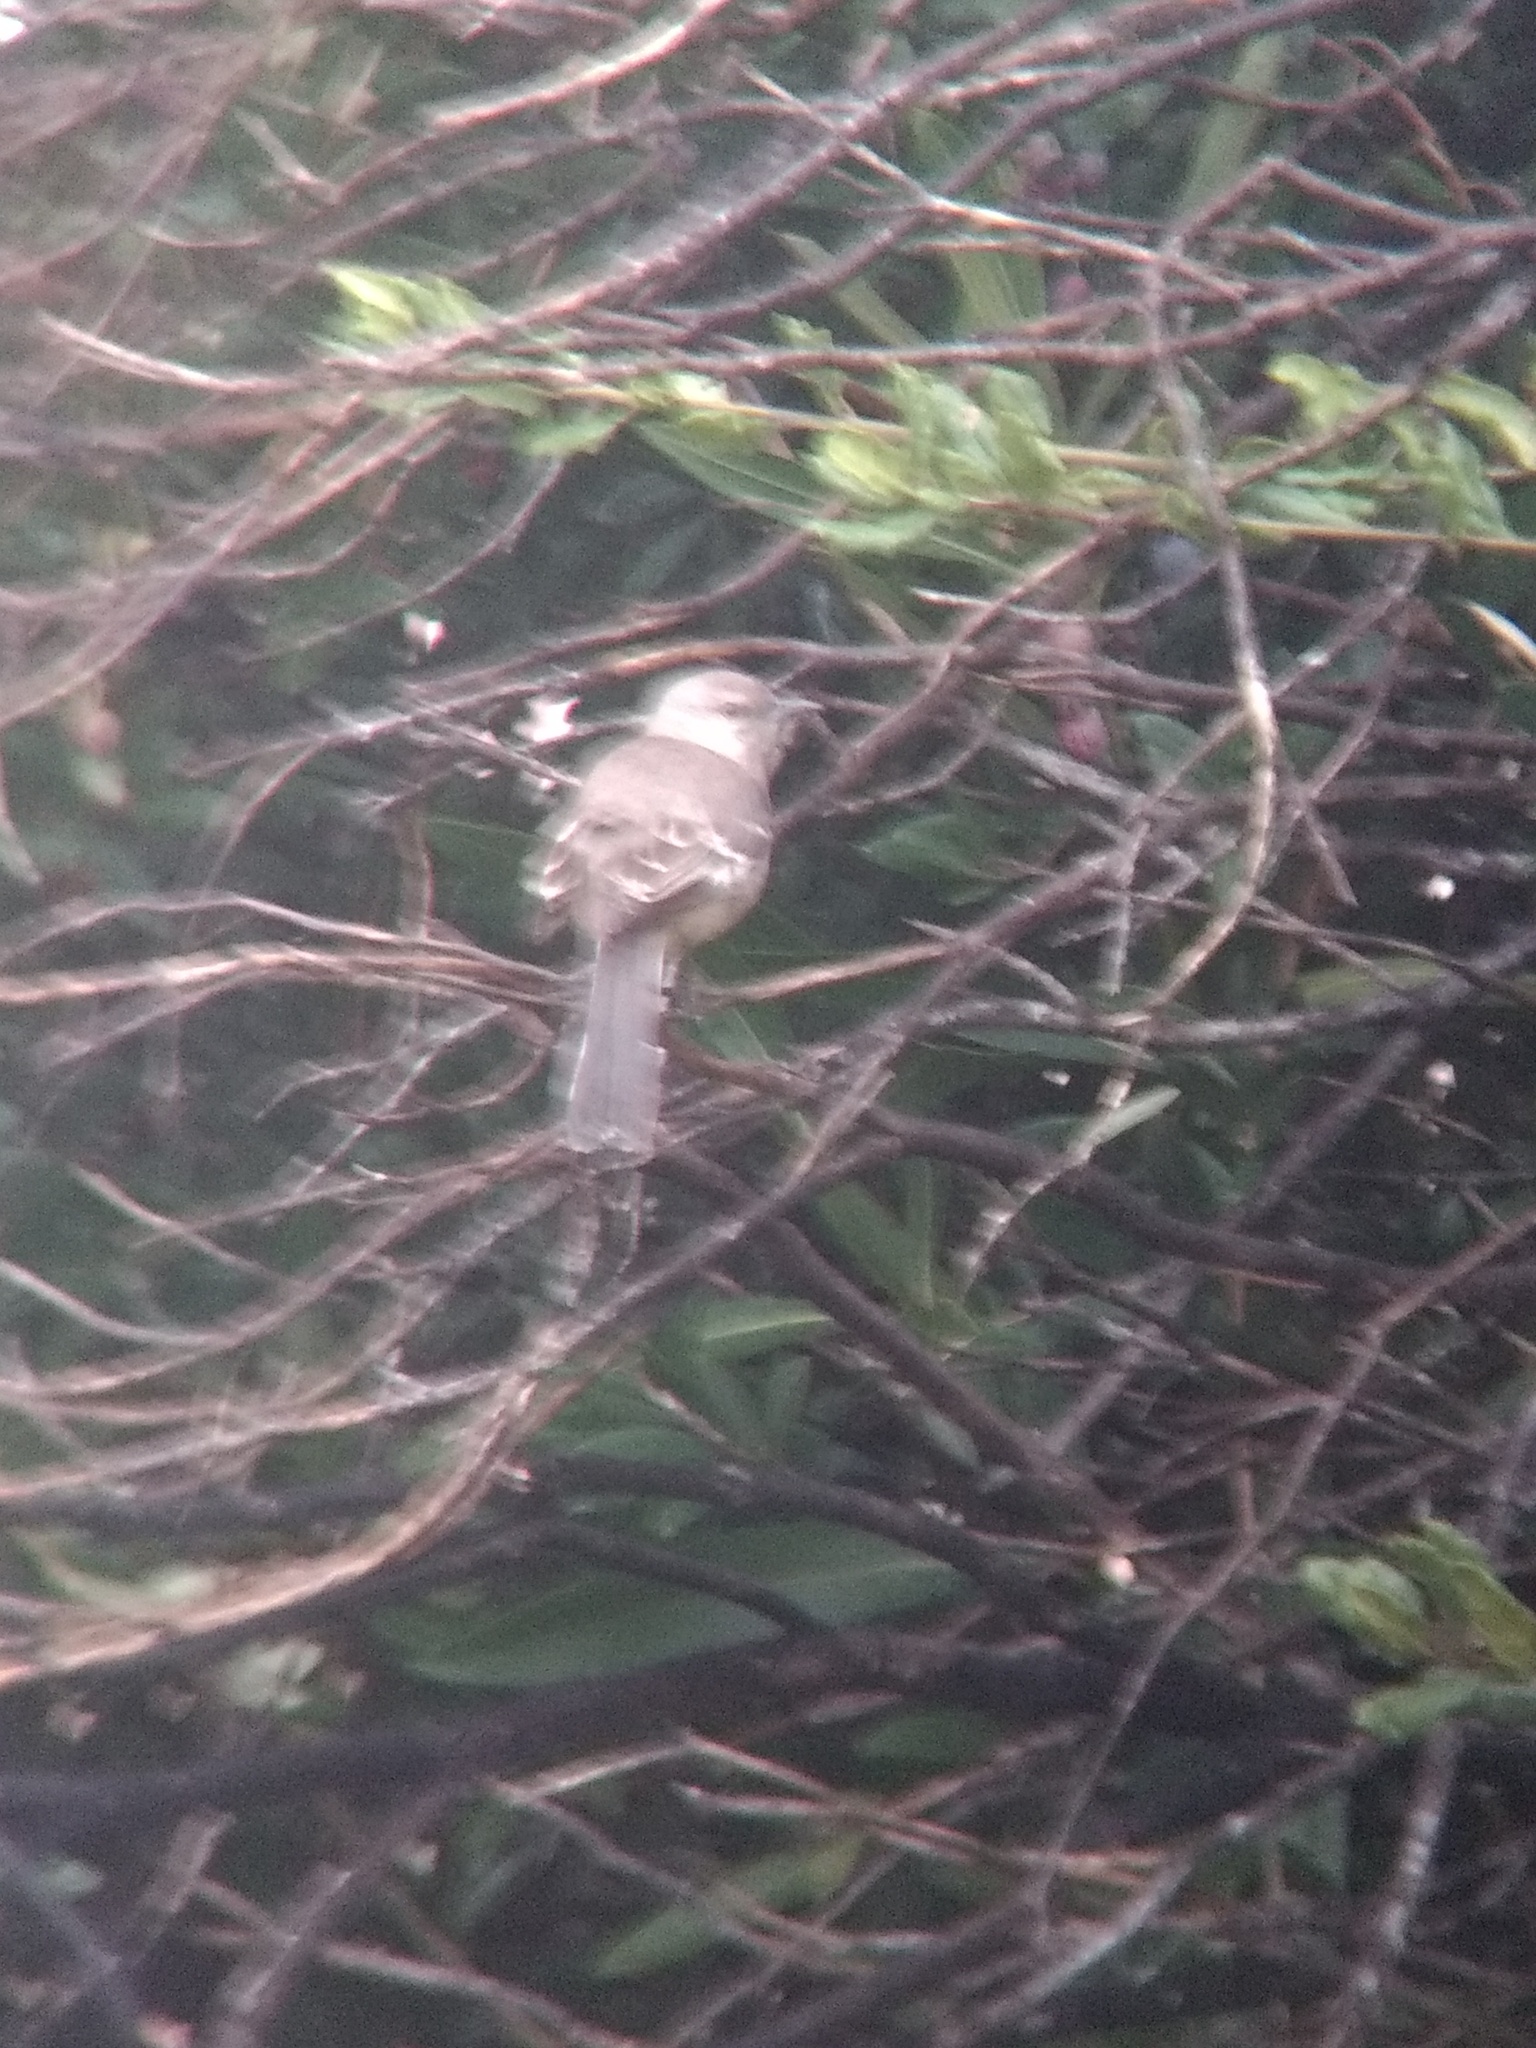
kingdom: Animalia
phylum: Chordata
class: Aves
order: Passeriformes
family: Mimidae
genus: Mimus
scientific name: Mimus polyglottos
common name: Northern mockingbird
